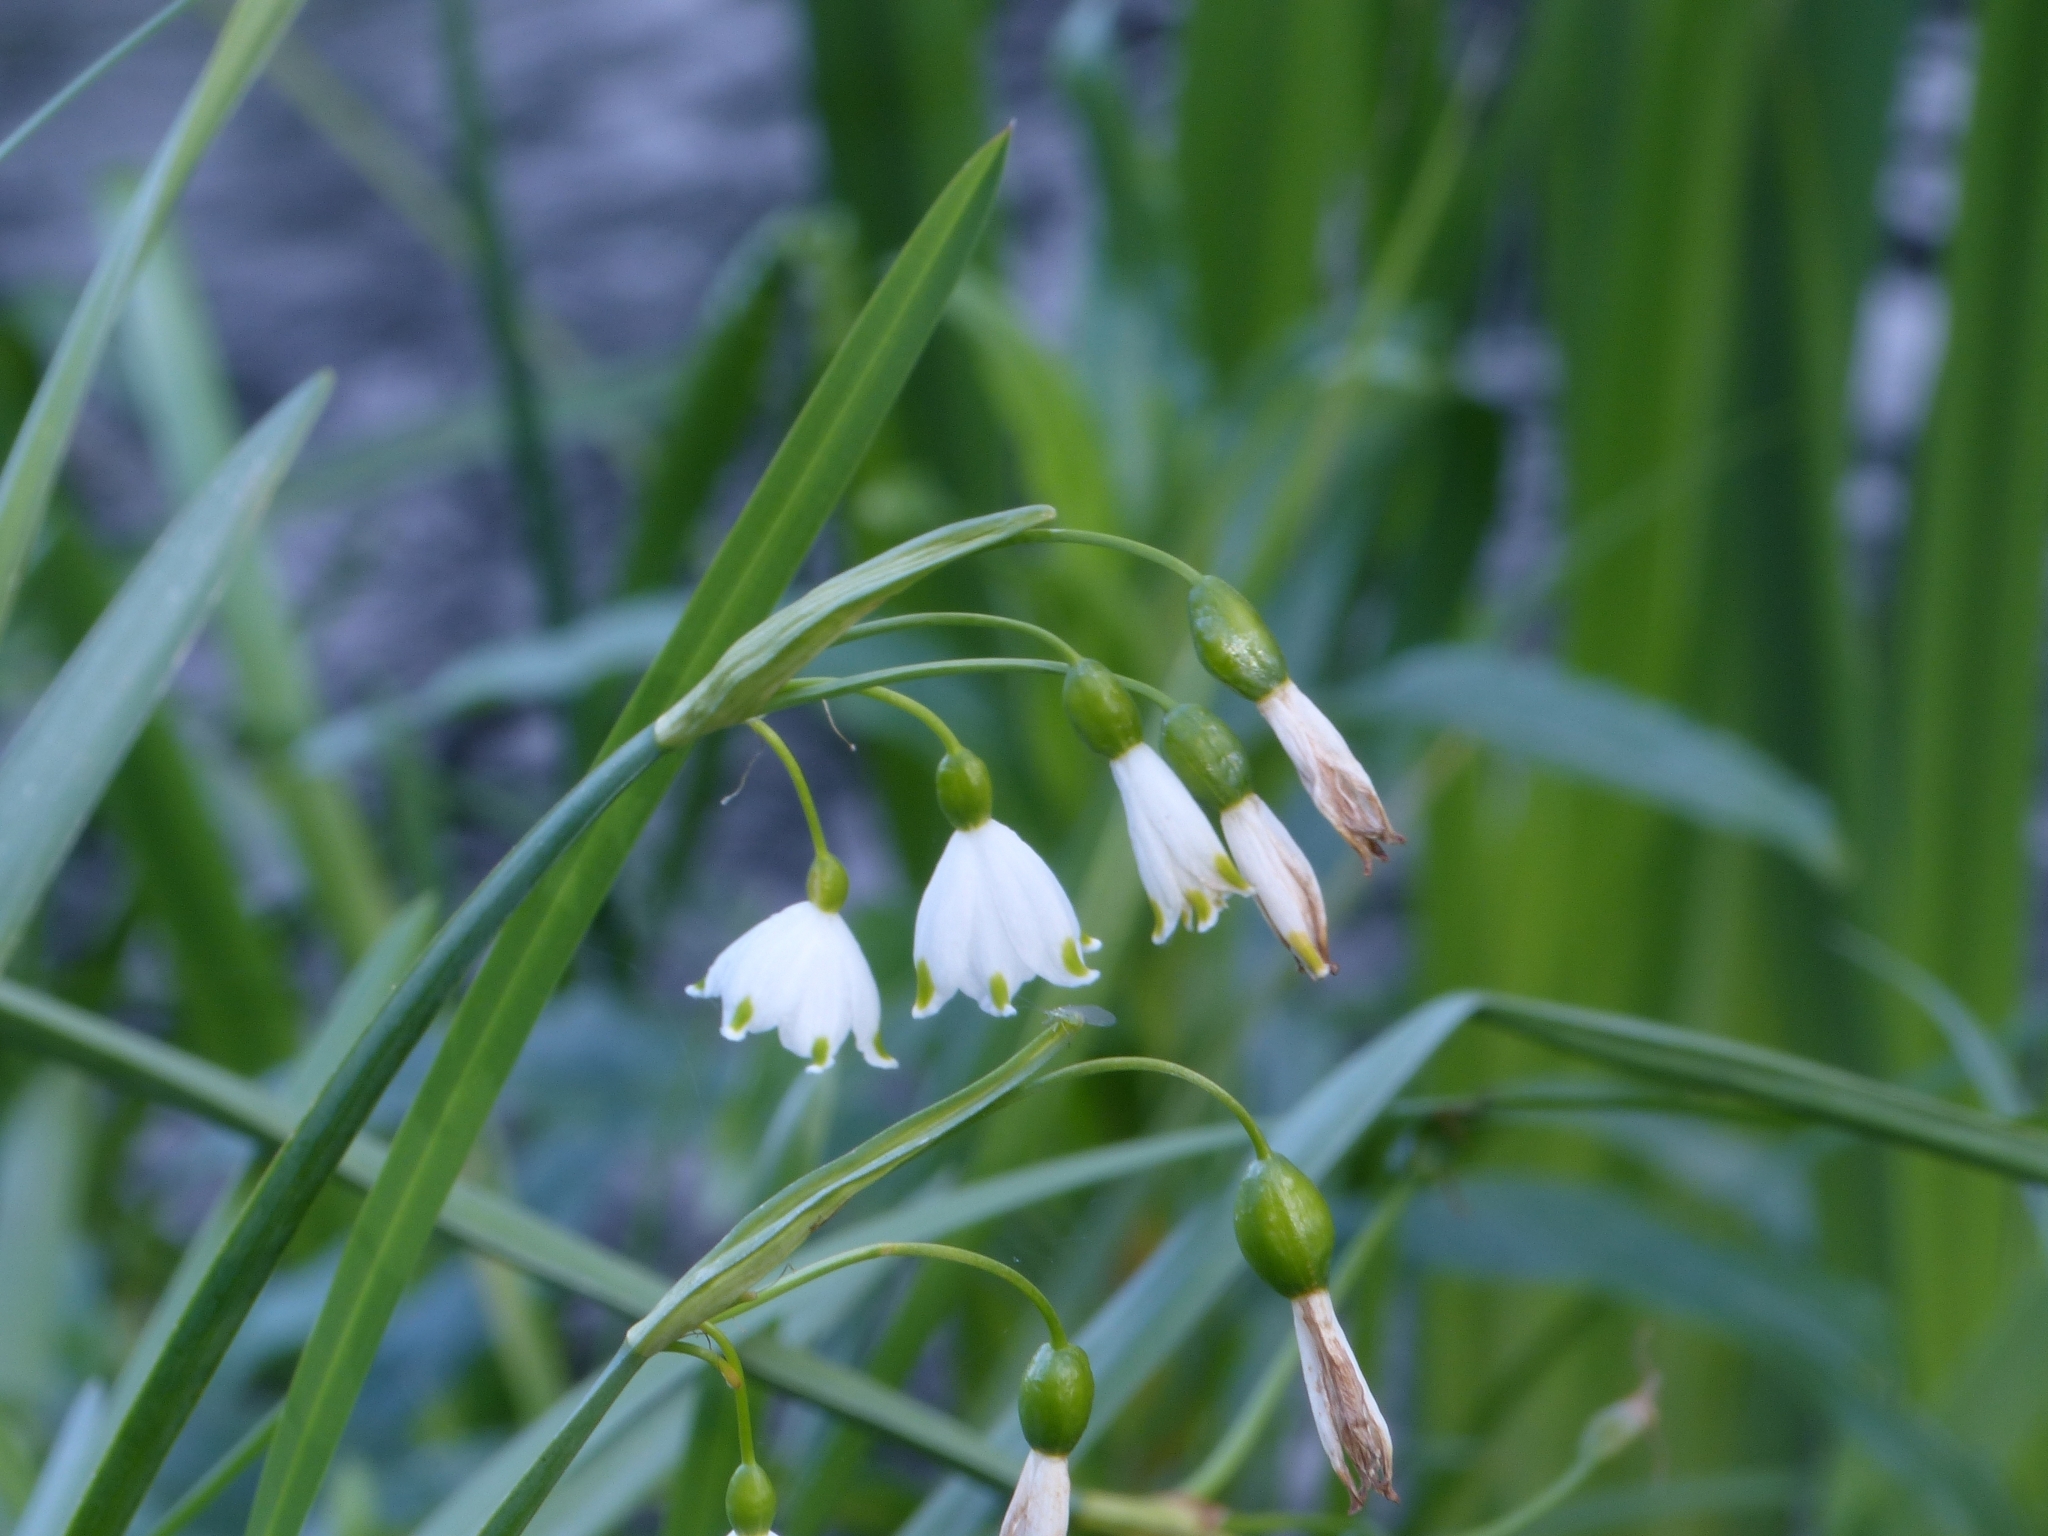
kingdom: Plantae
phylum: Tracheophyta
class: Liliopsida
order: Asparagales
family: Amaryllidaceae
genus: Leucojum
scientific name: Leucojum aestivum
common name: Summer snowflake
